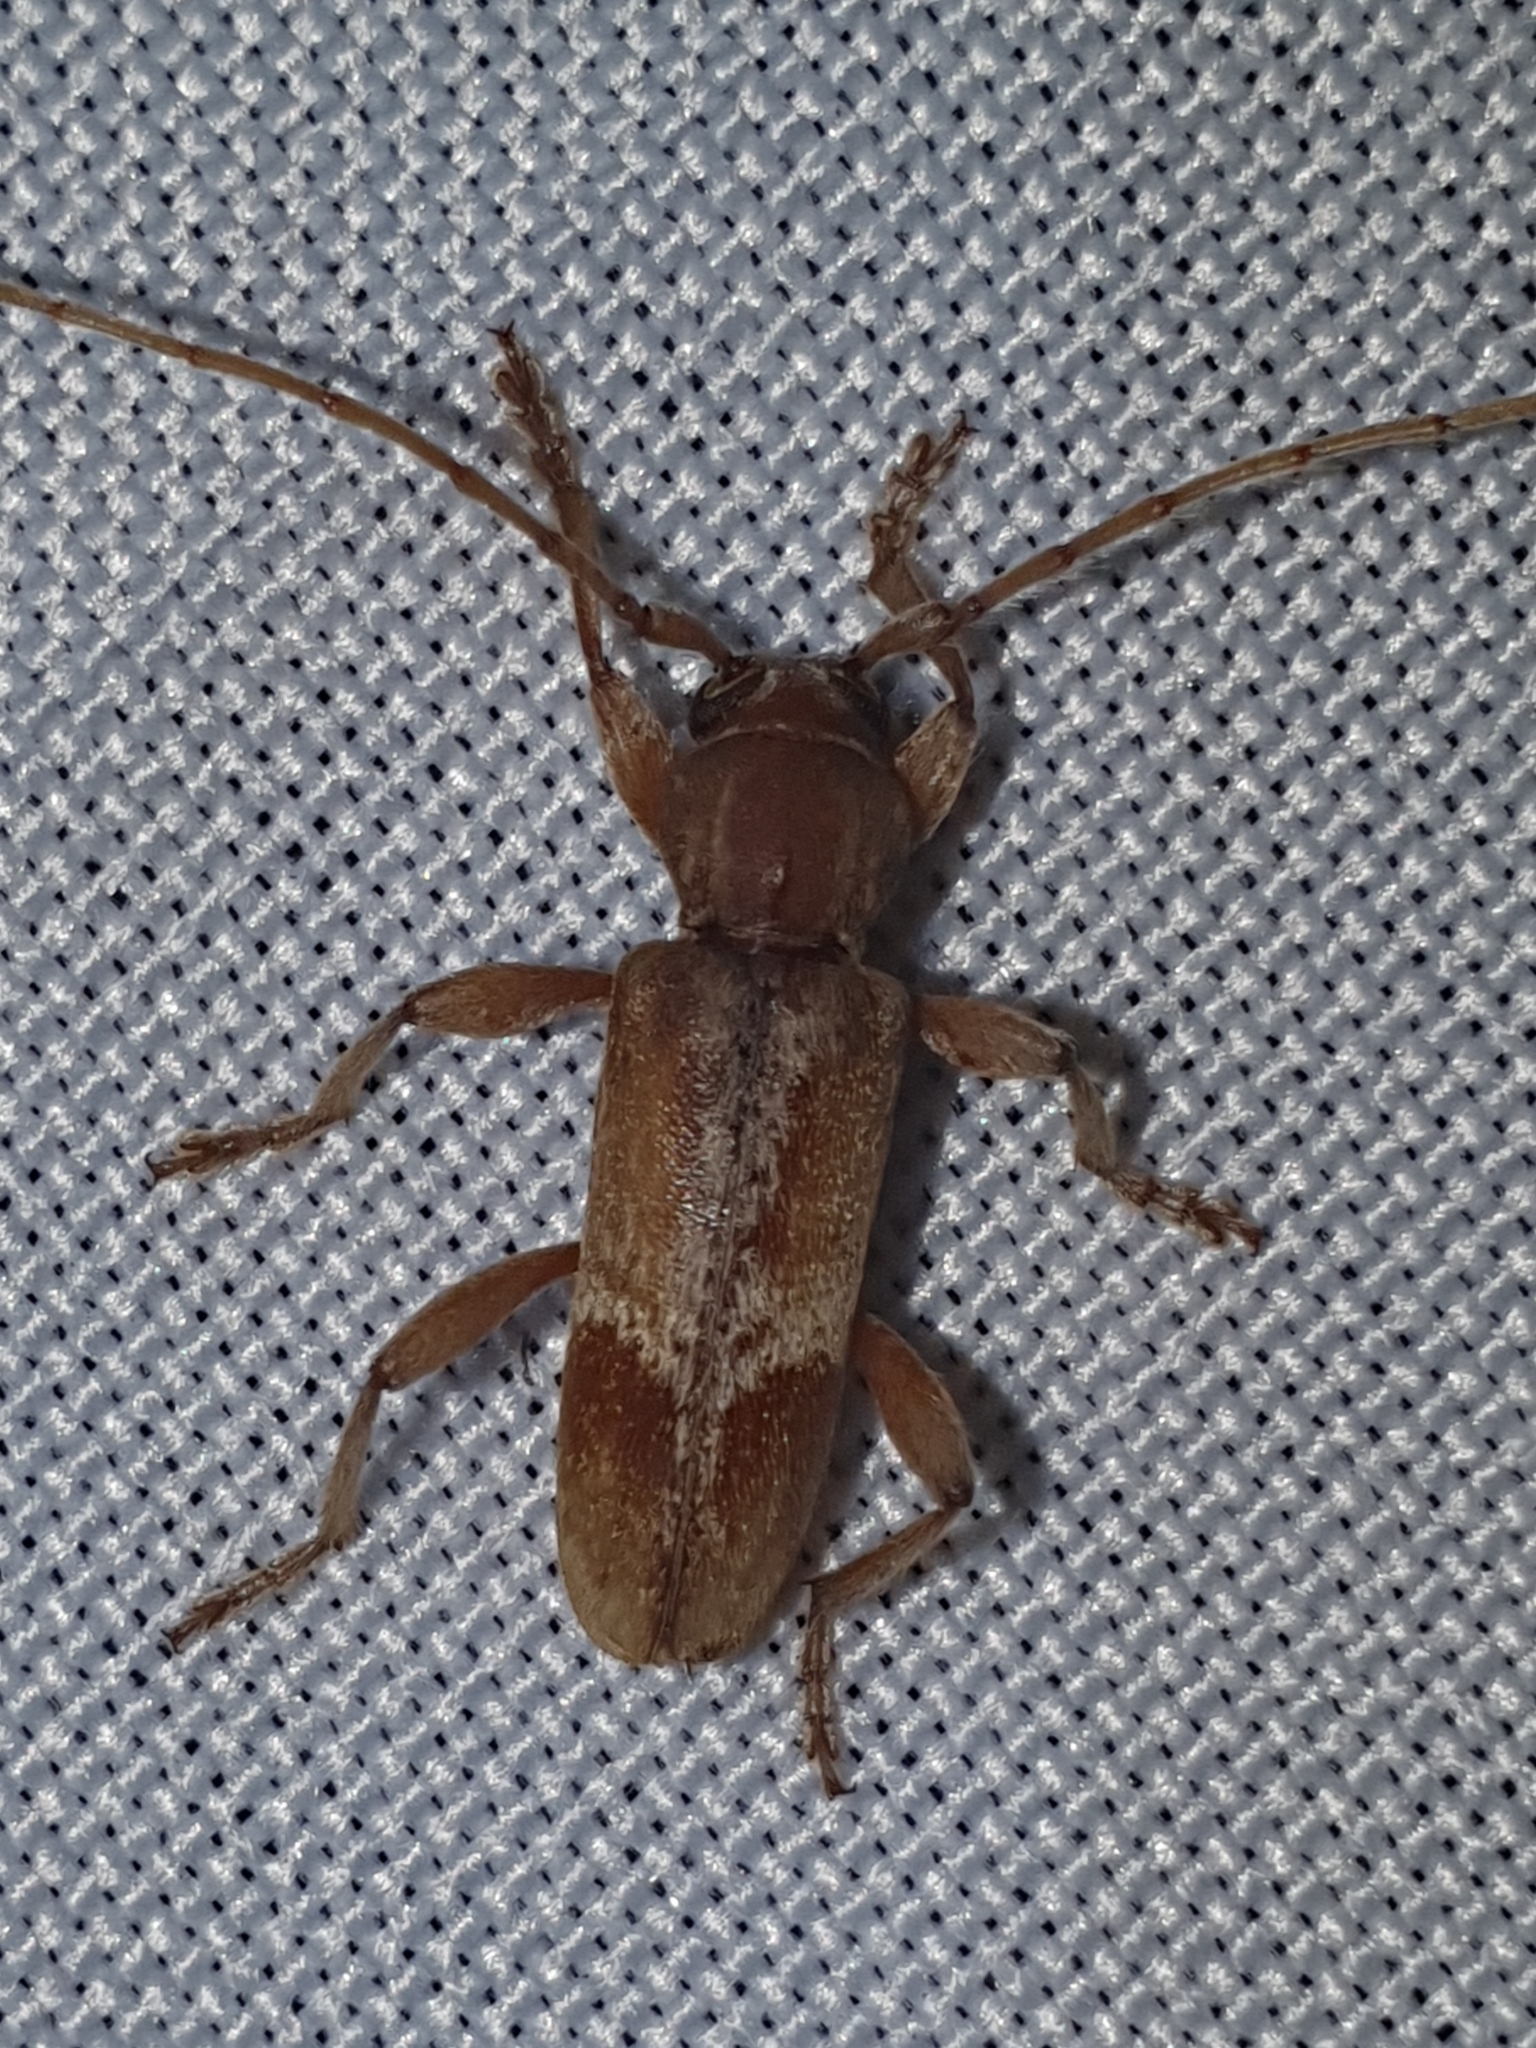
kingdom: Animalia
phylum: Arthropoda
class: Insecta
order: Coleoptera
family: Cerambycidae
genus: Trichoferus
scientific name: Trichoferus pallidus
